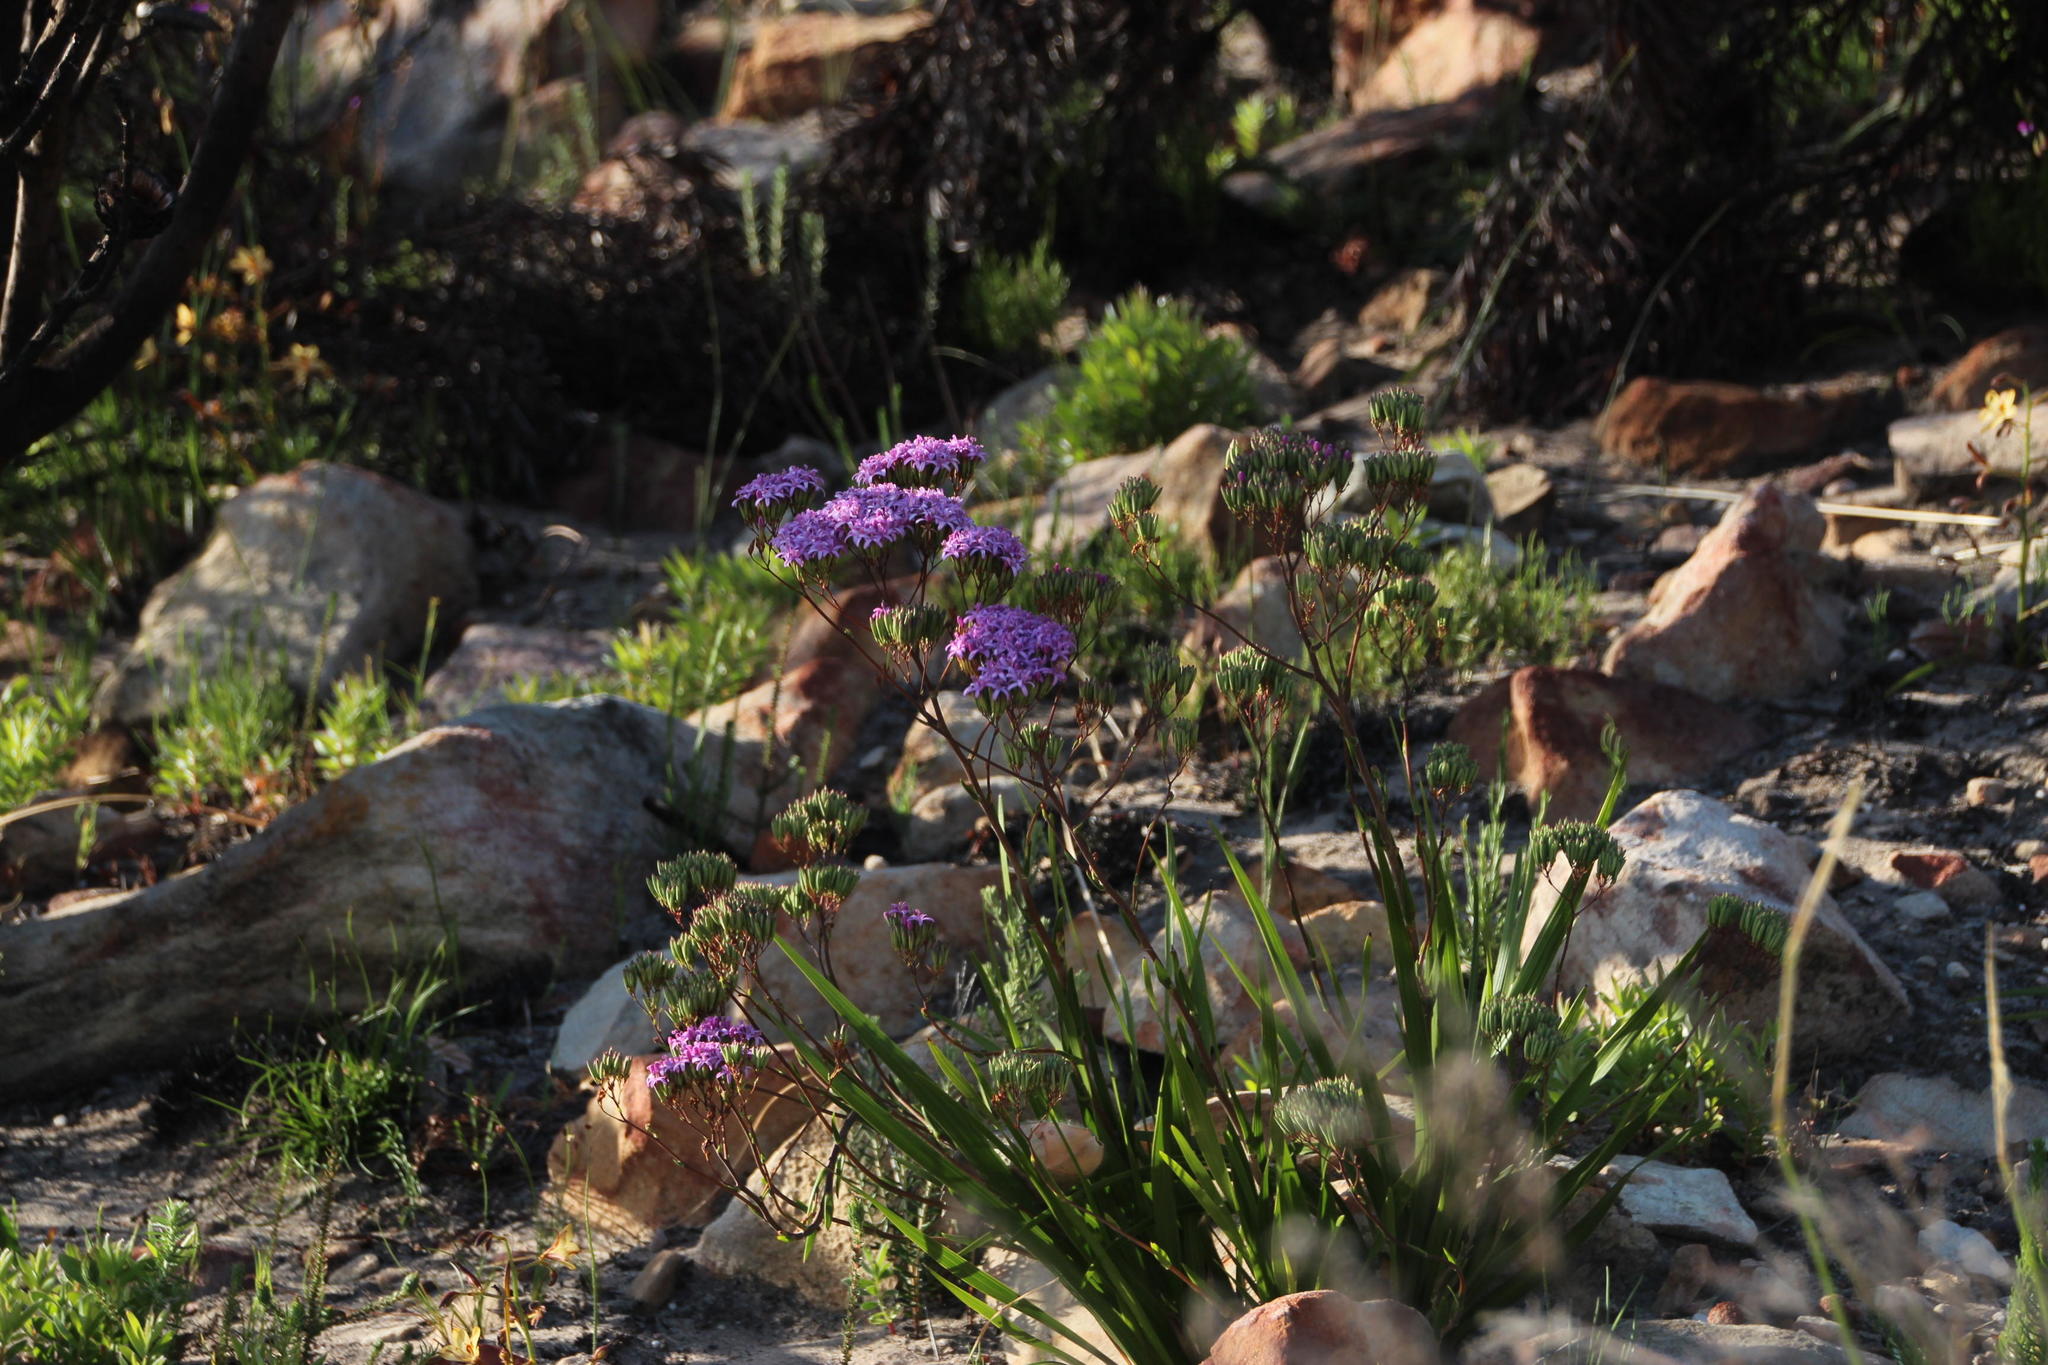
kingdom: Plantae
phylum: Tracheophyta
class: Magnoliopsida
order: Asterales
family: Asteraceae
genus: Corymbium
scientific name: Corymbium glabrum
